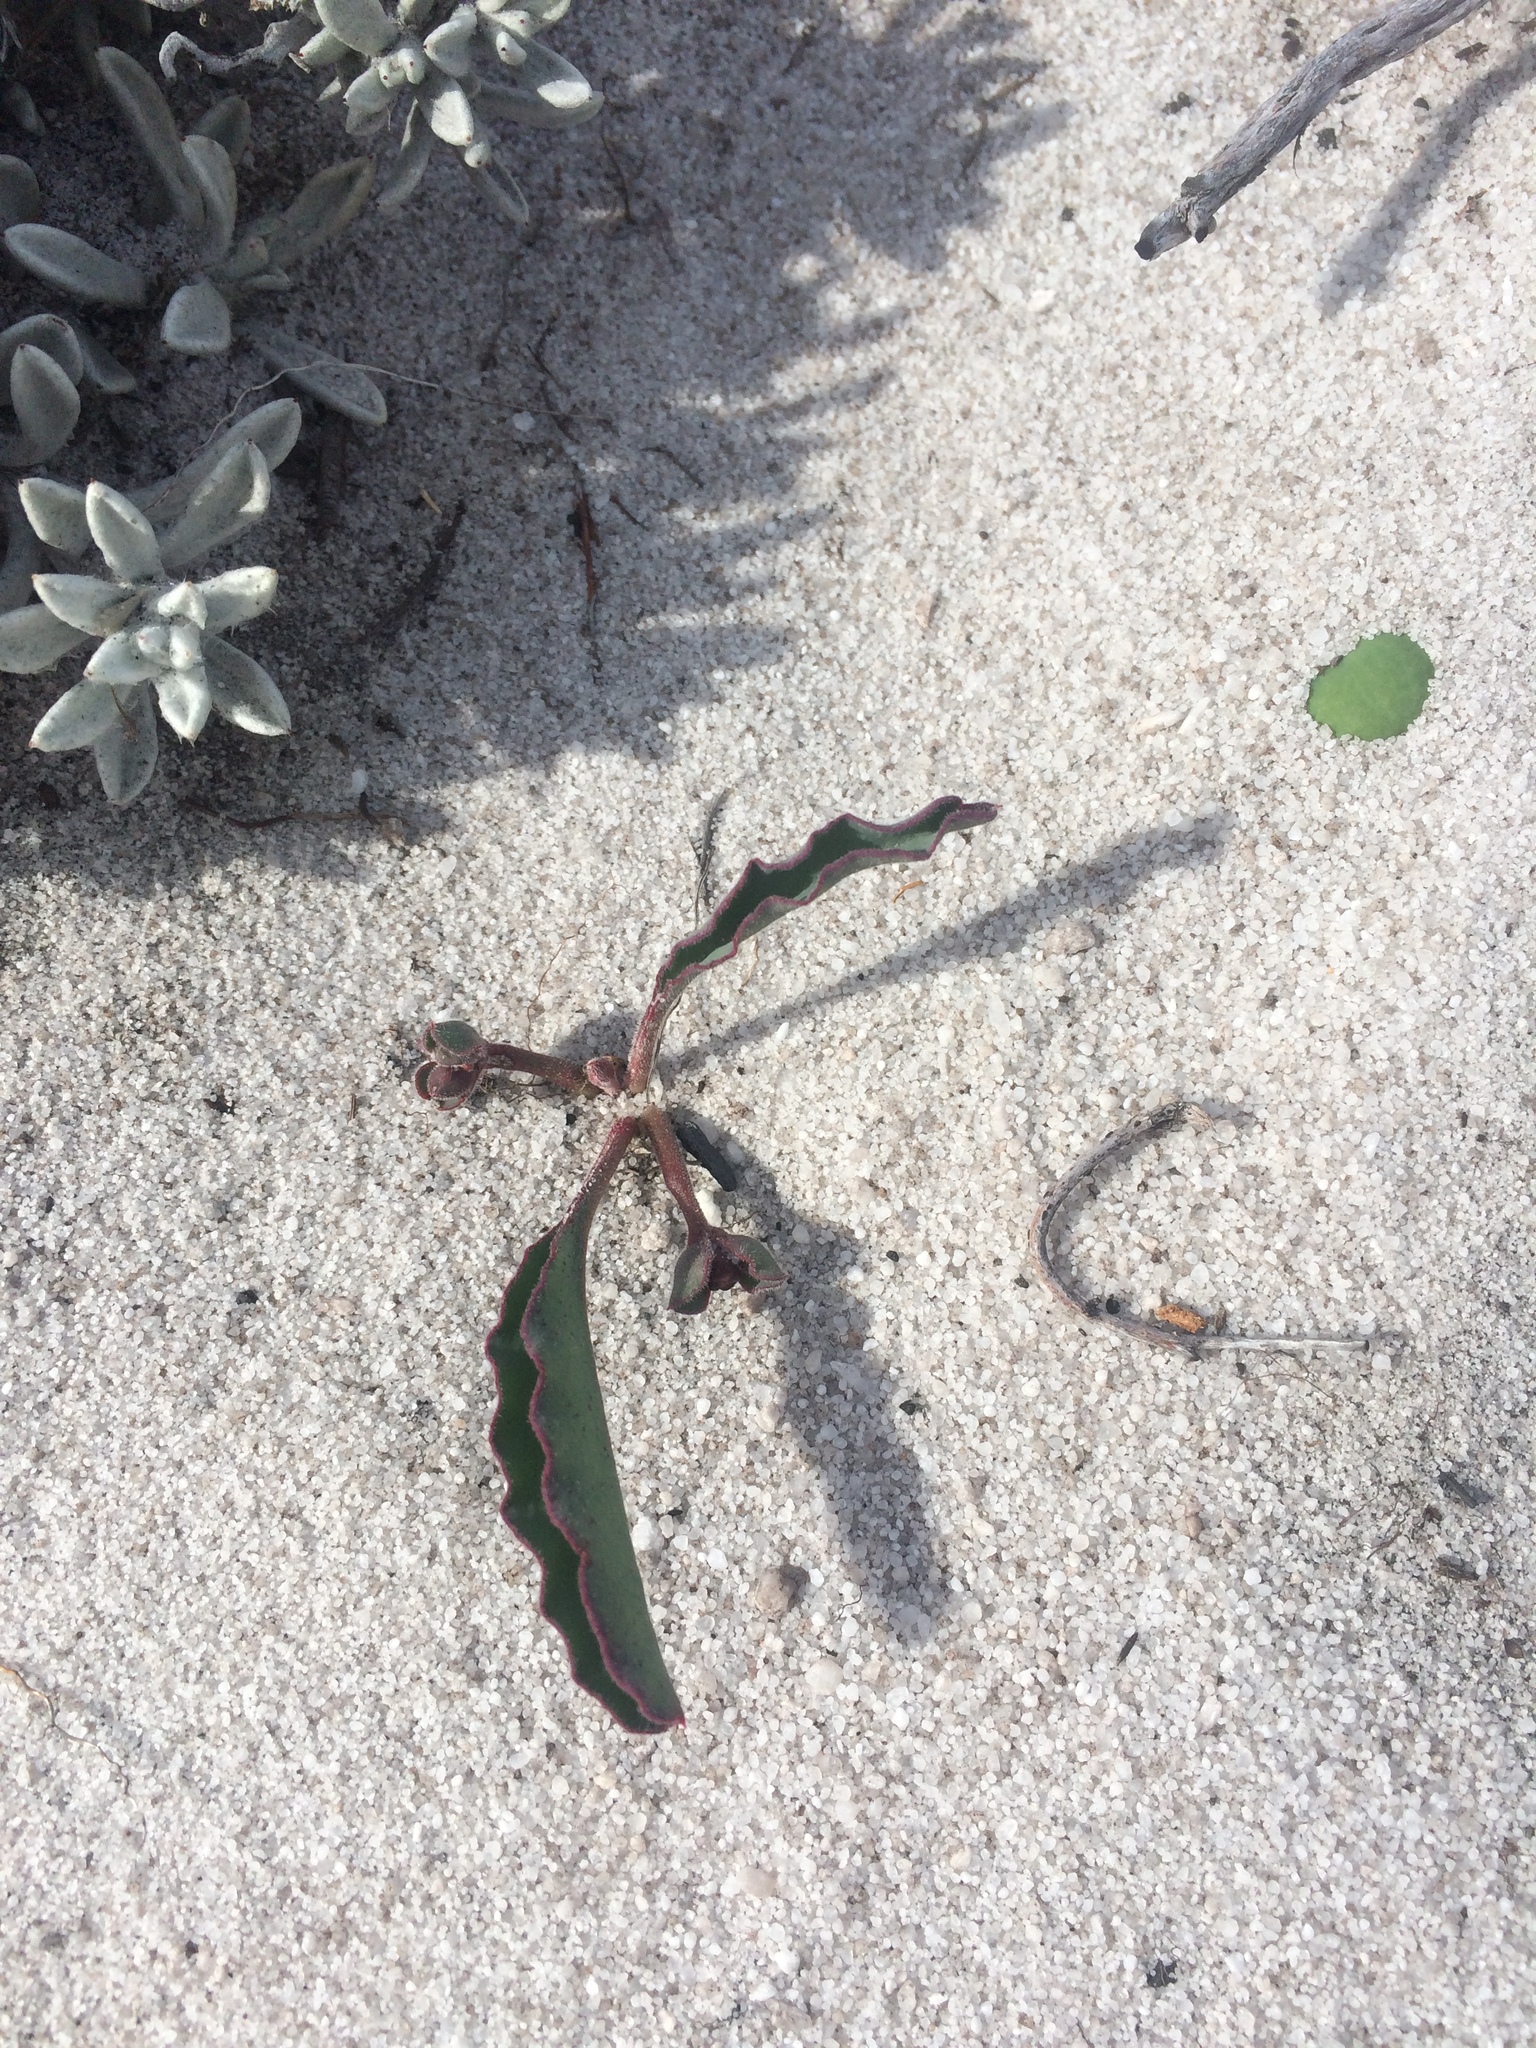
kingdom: Plantae
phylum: Tracheophyta
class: Magnoliopsida
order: Malpighiales
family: Euphorbiaceae
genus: Euphorbia
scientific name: Euphorbia tuberosa
